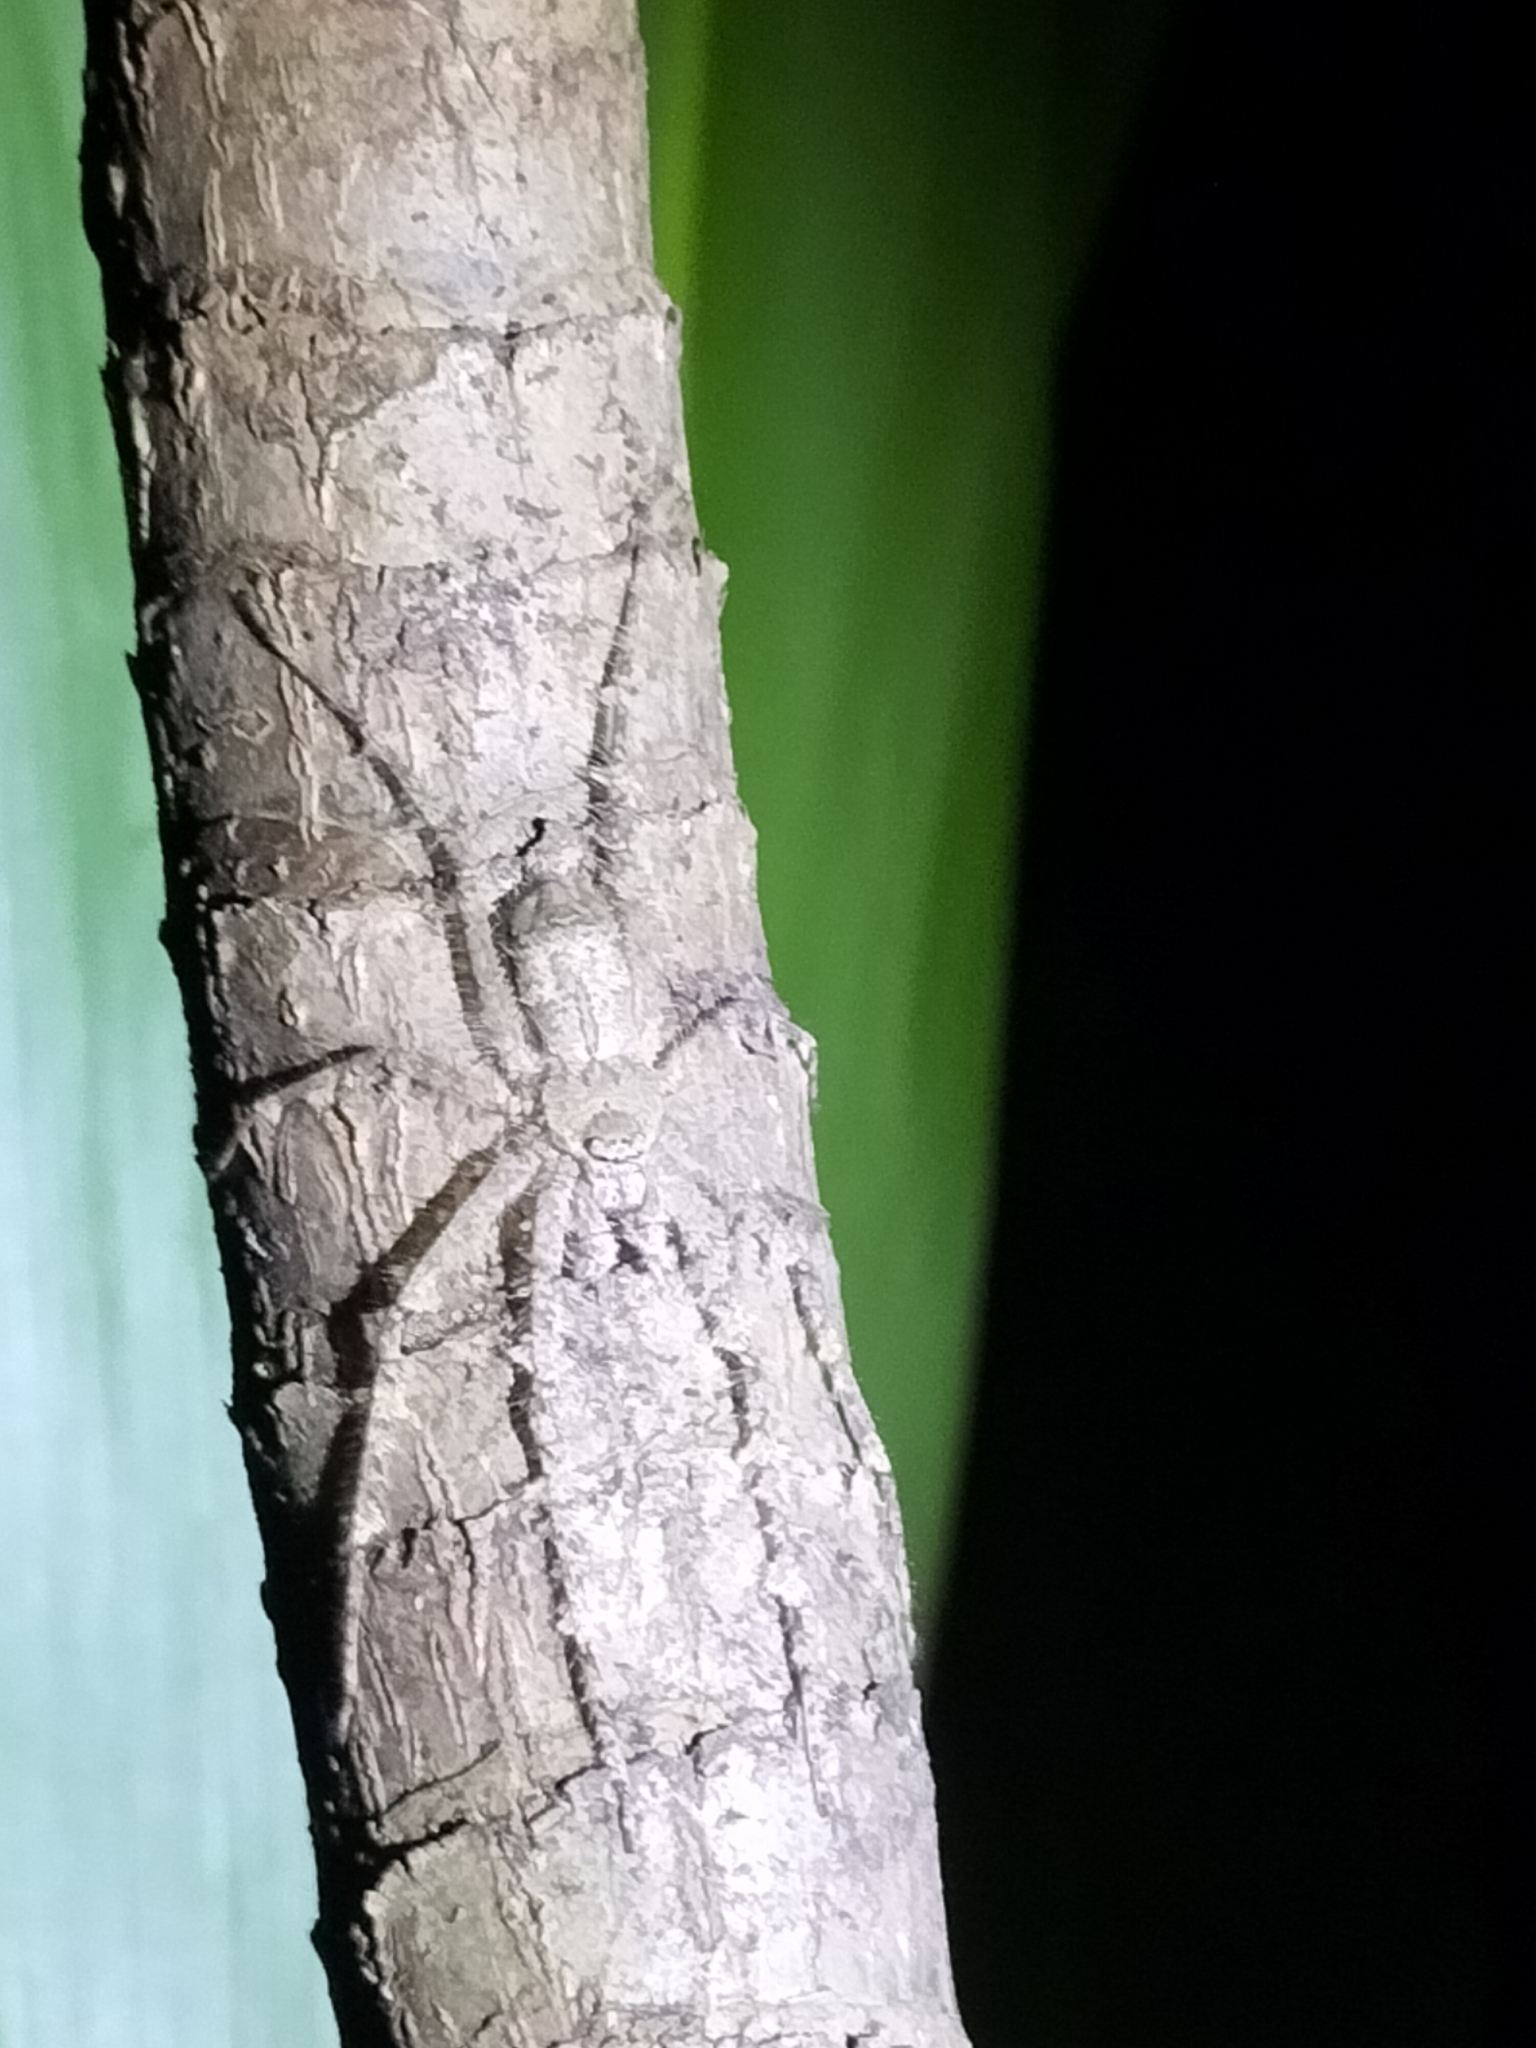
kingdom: Animalia
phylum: Arthropoda
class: Arachnida
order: Araneae
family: Sparassidae
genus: Pandercetes
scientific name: Pandercetes gracilis
